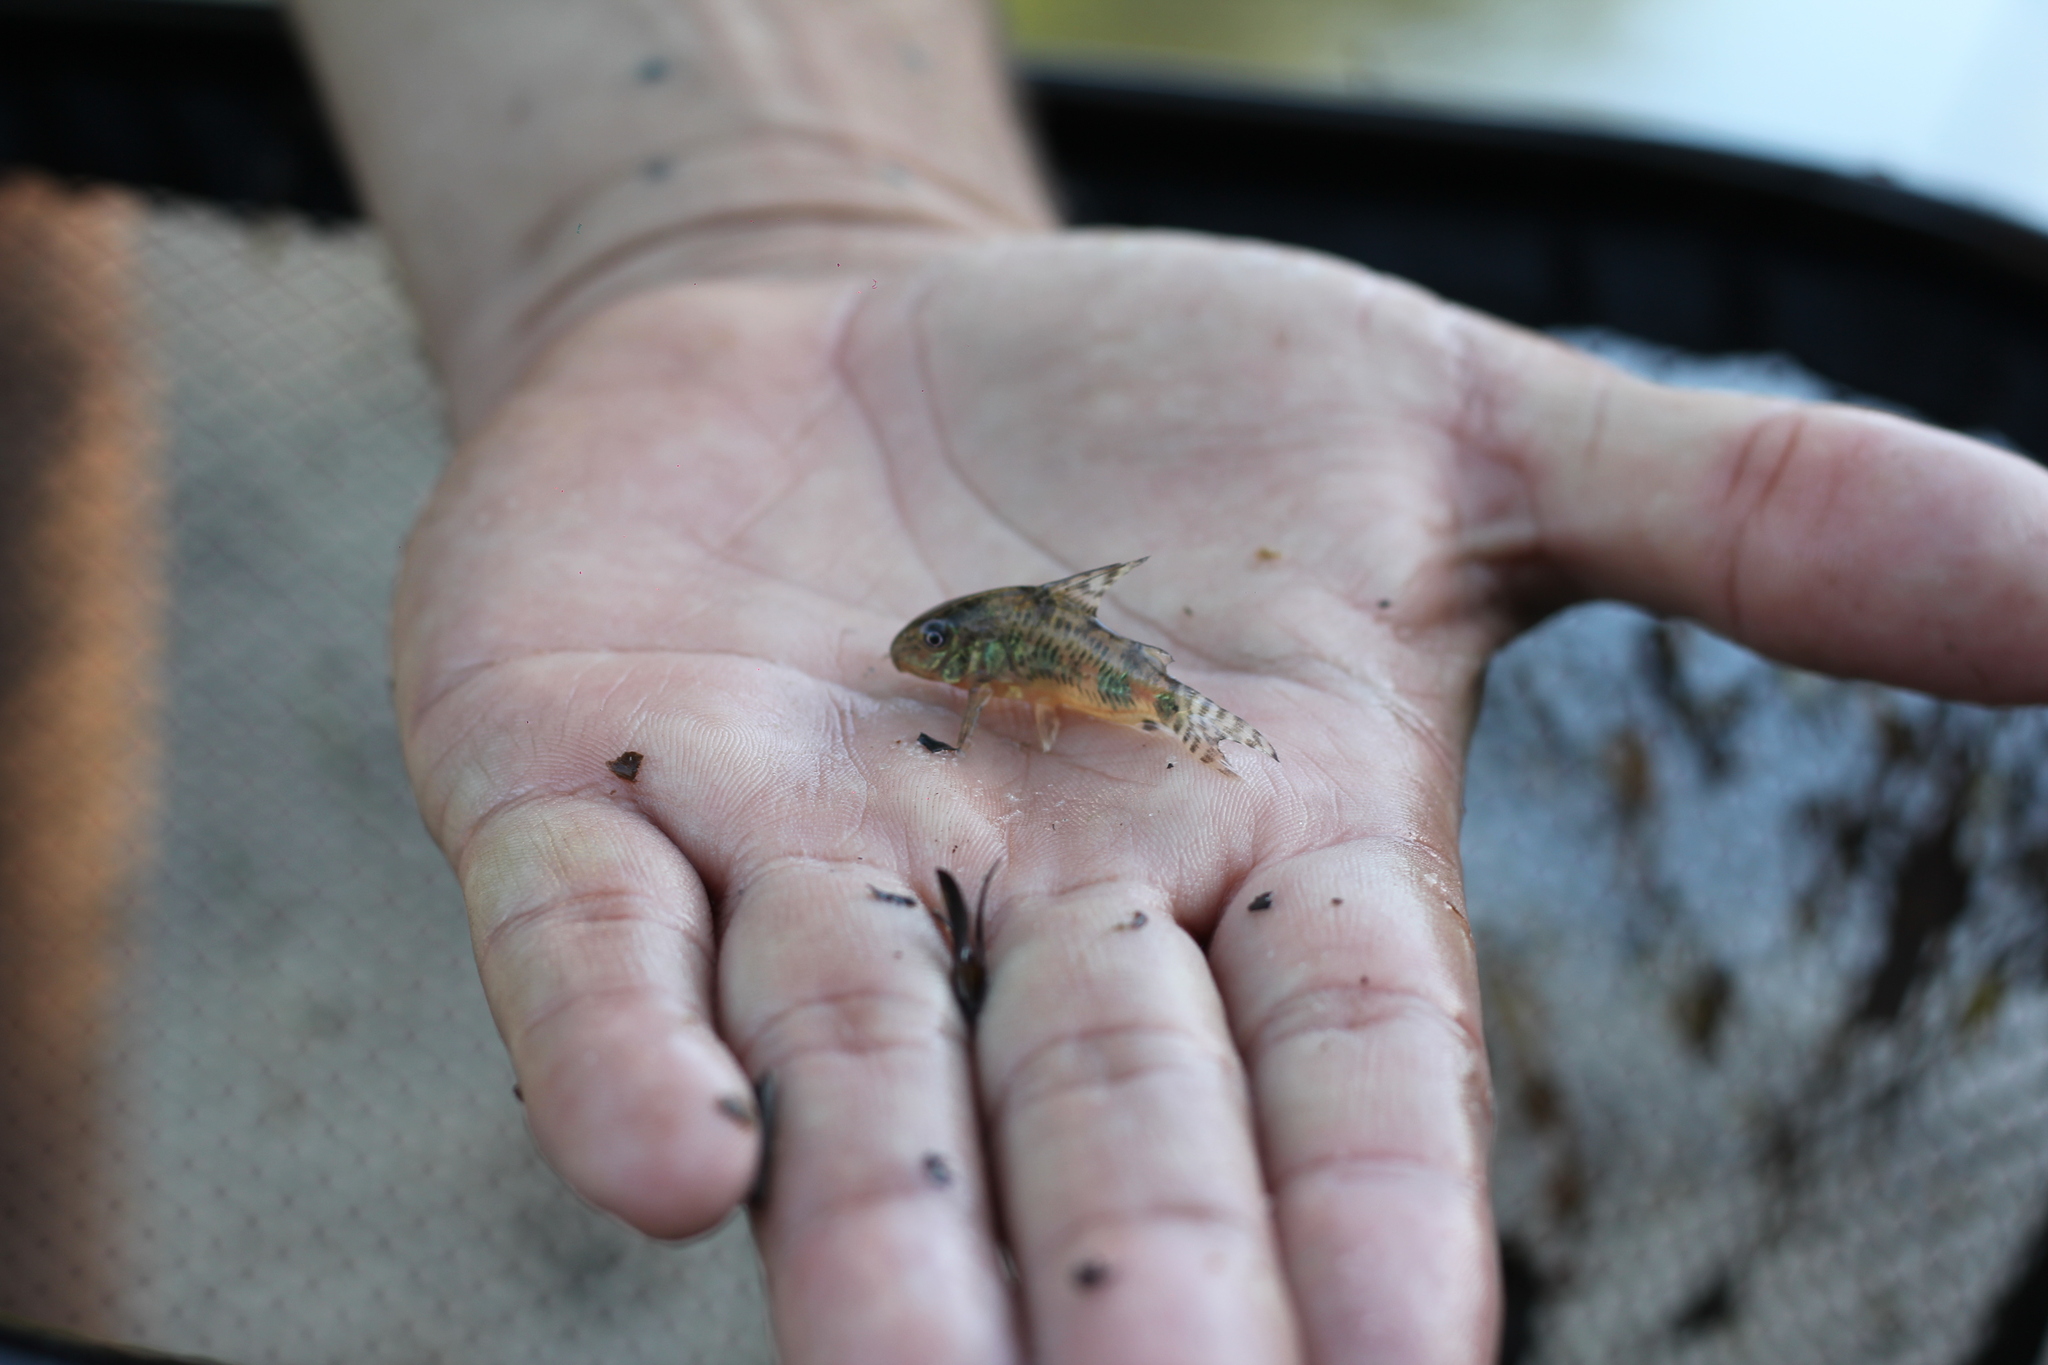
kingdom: Animalia
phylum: Chordata
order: Siluriformes
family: Callichthyidae
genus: Corydoras
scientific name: Corydoras longipinnis
